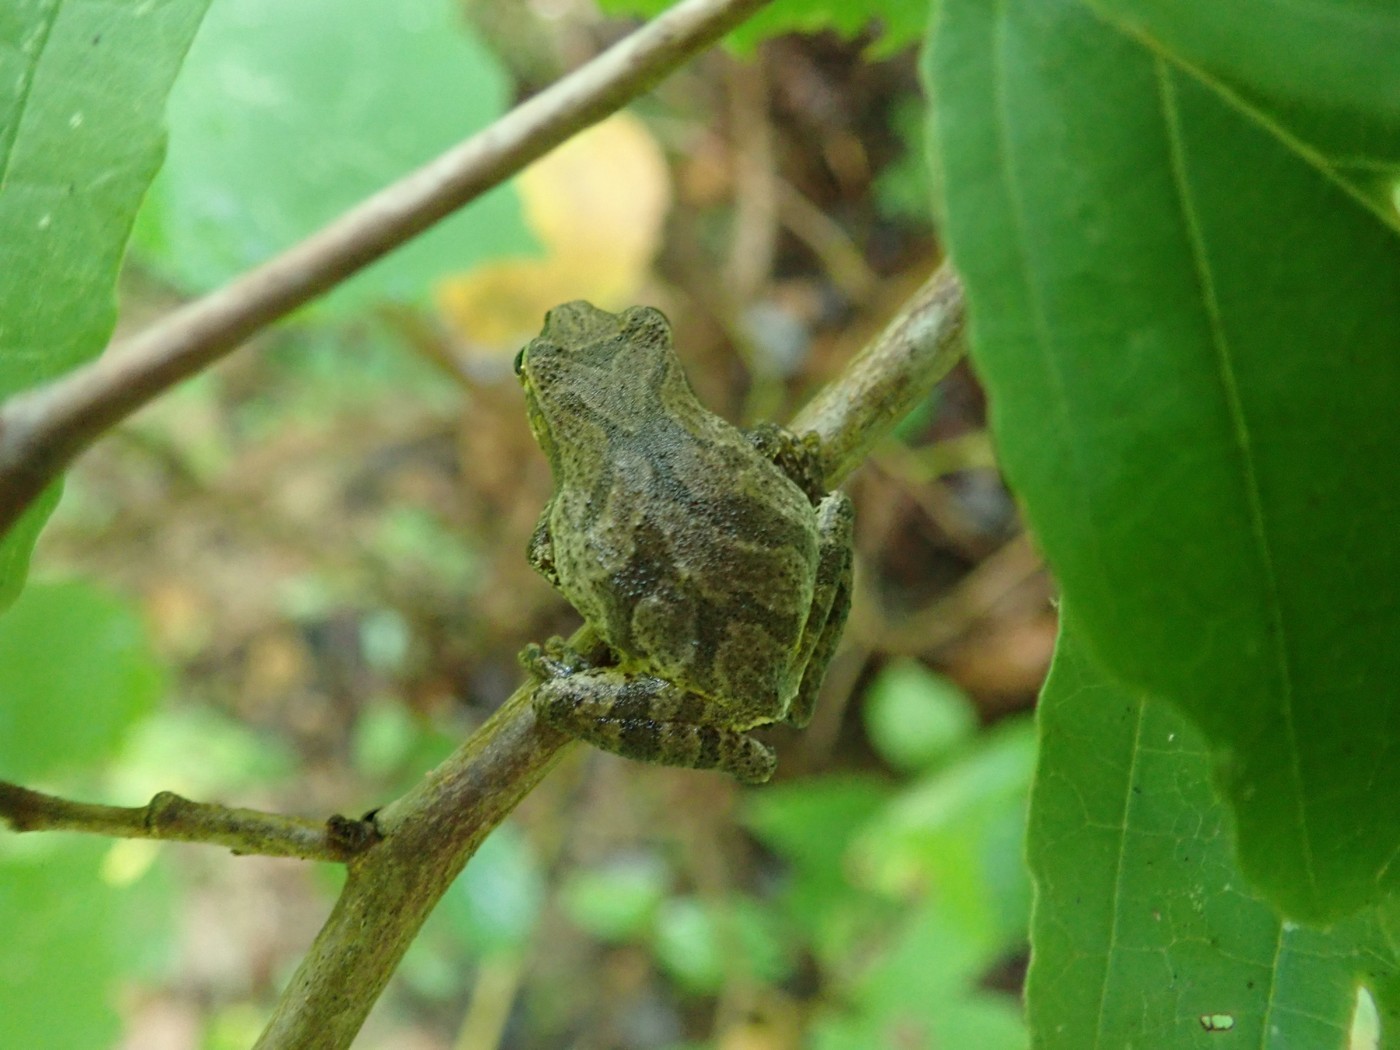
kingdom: Animalia
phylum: Chordata
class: Amphibia
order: Anura
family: Hylidae
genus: Pseudacris
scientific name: Pseudacris crucifer
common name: Spring peeper
